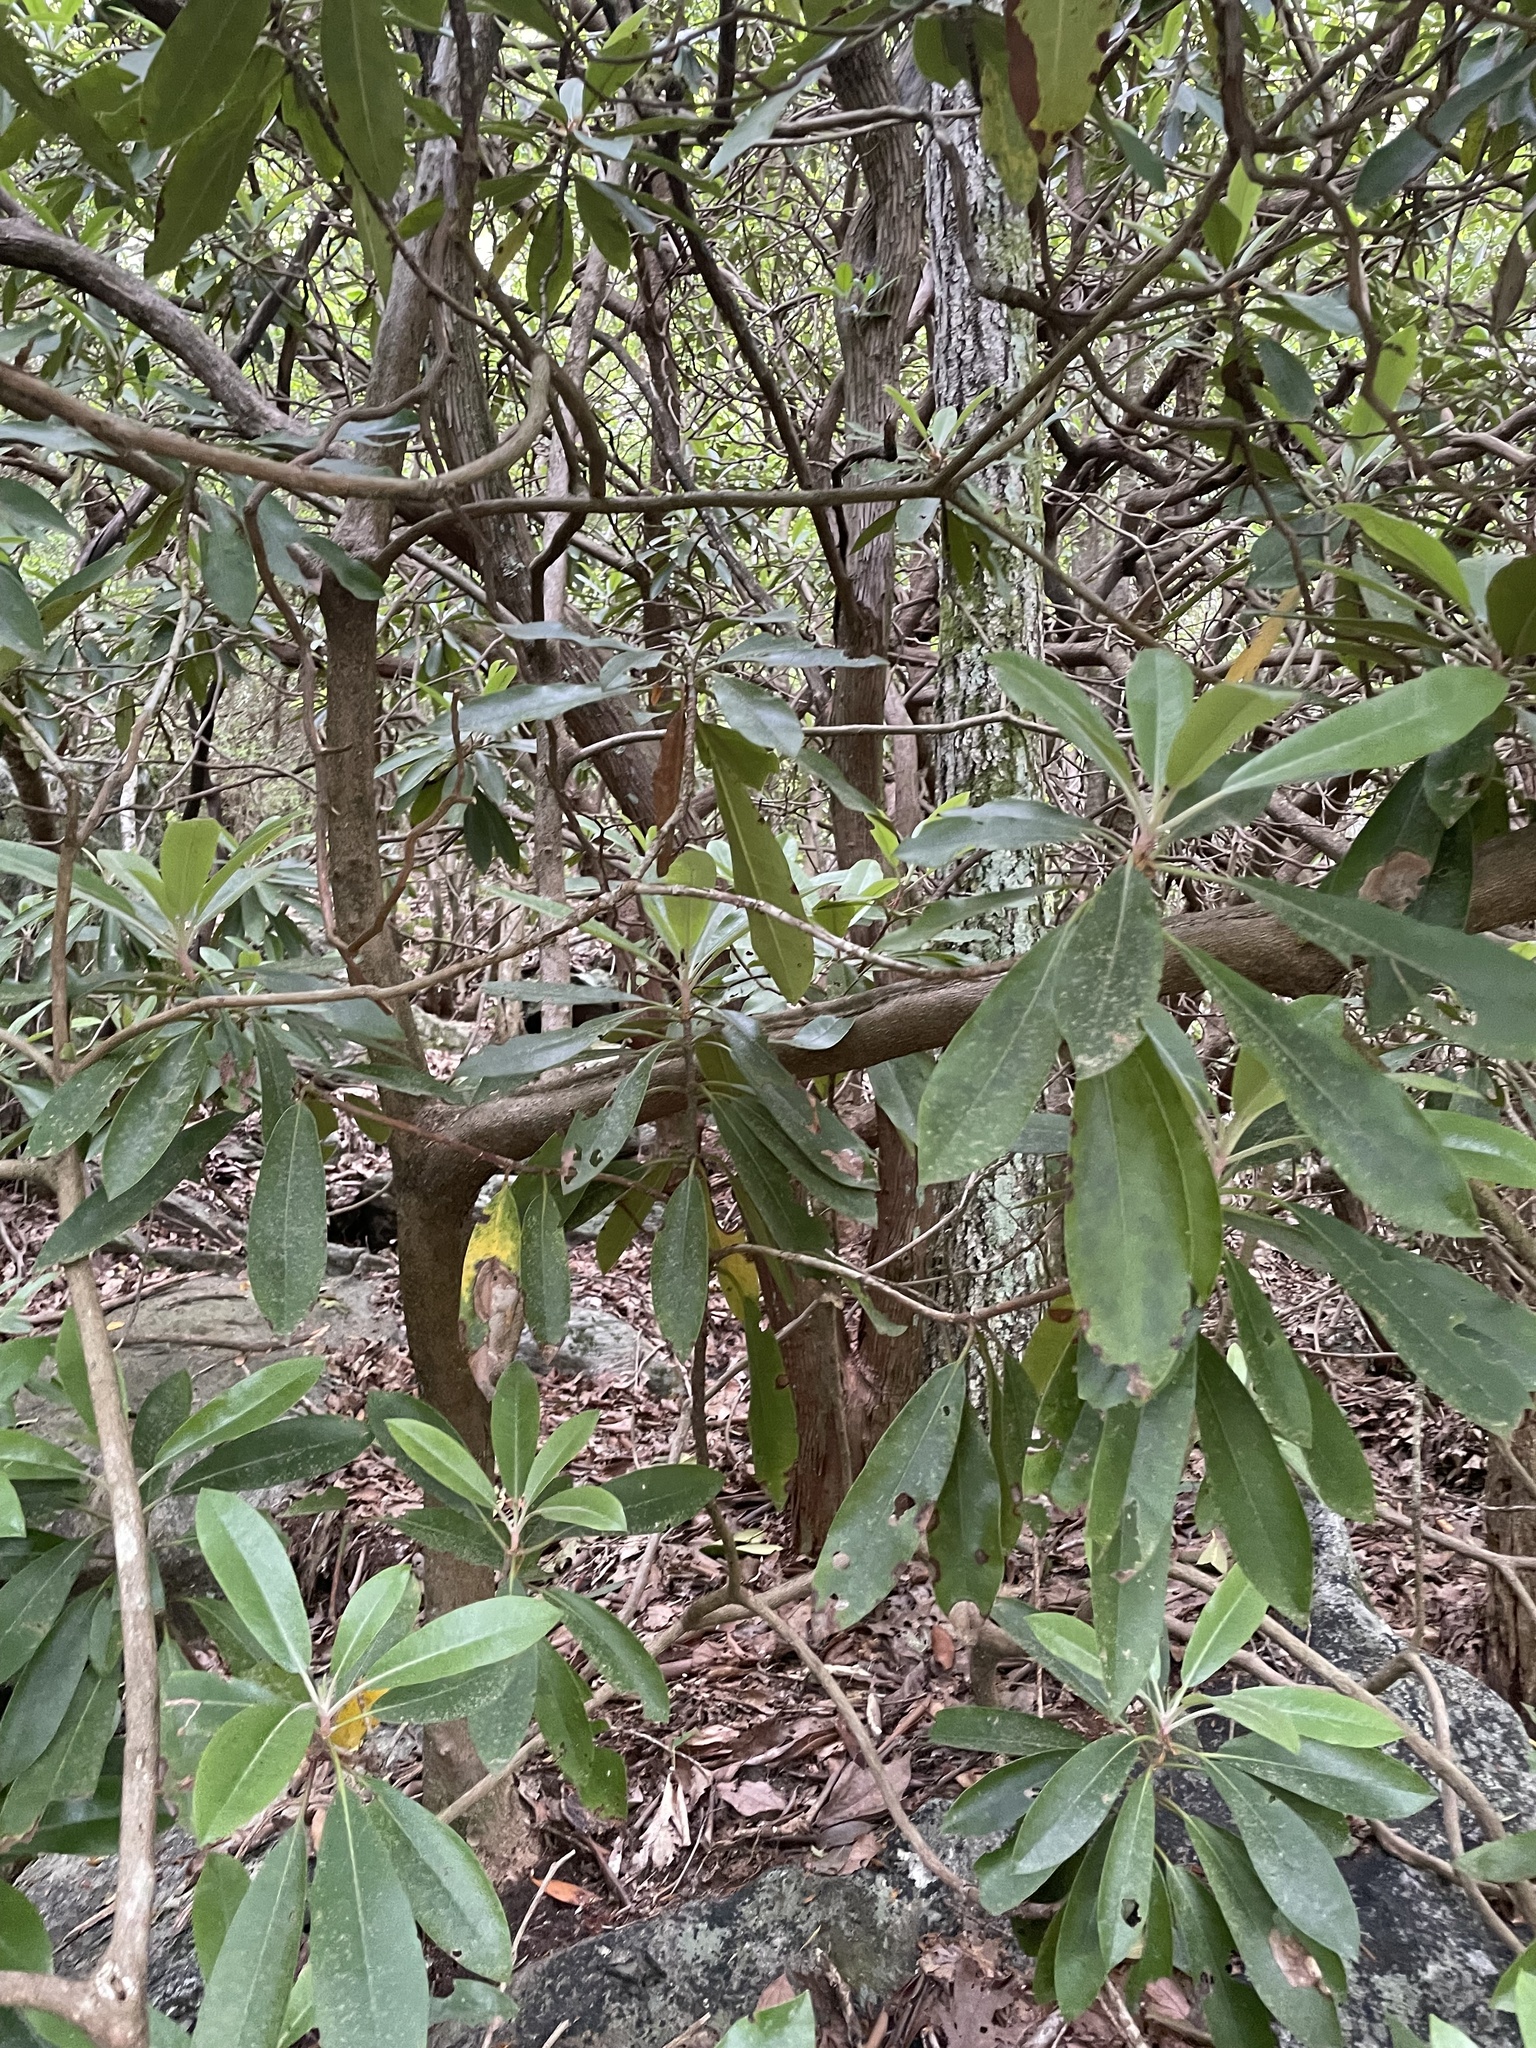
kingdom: Plantae
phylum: Tracheophyta
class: Magnoliopsida
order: Ericales
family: Ericaceae
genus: Rhododendron
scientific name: Rhododendron maximum
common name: Great rhododendron
